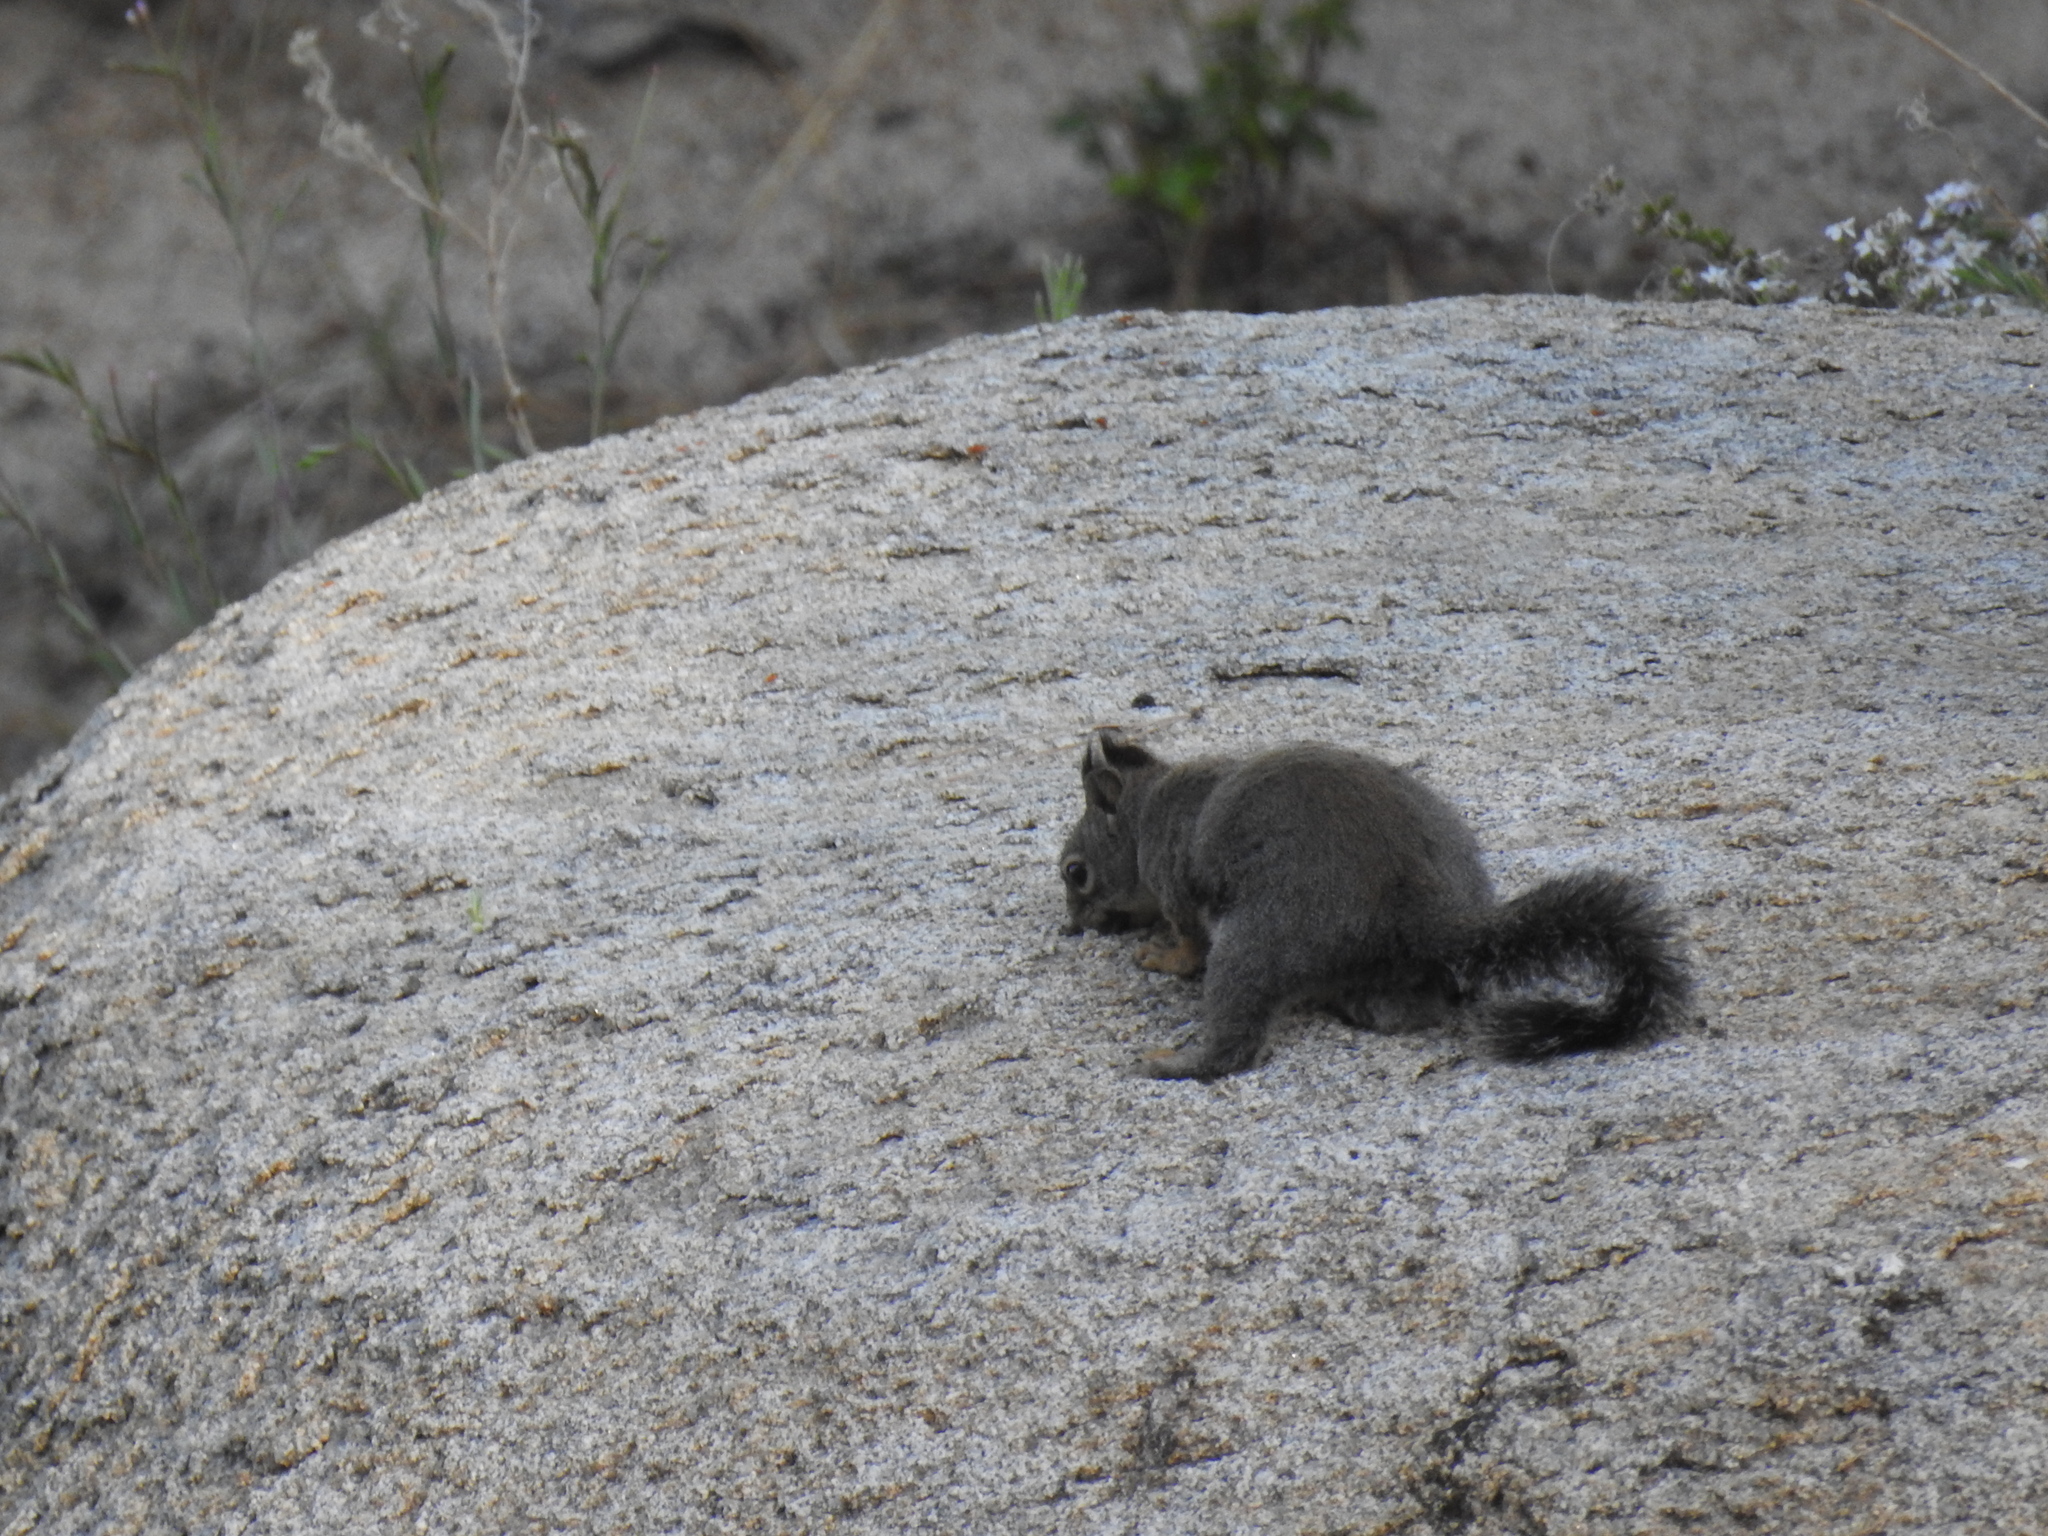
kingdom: Animalia
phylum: Chordata
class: Mammalia
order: Rodentia
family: Sciuridae
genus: Tamiasciurus
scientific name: Tamiasciurus douglasii
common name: Douglas's squirrel
